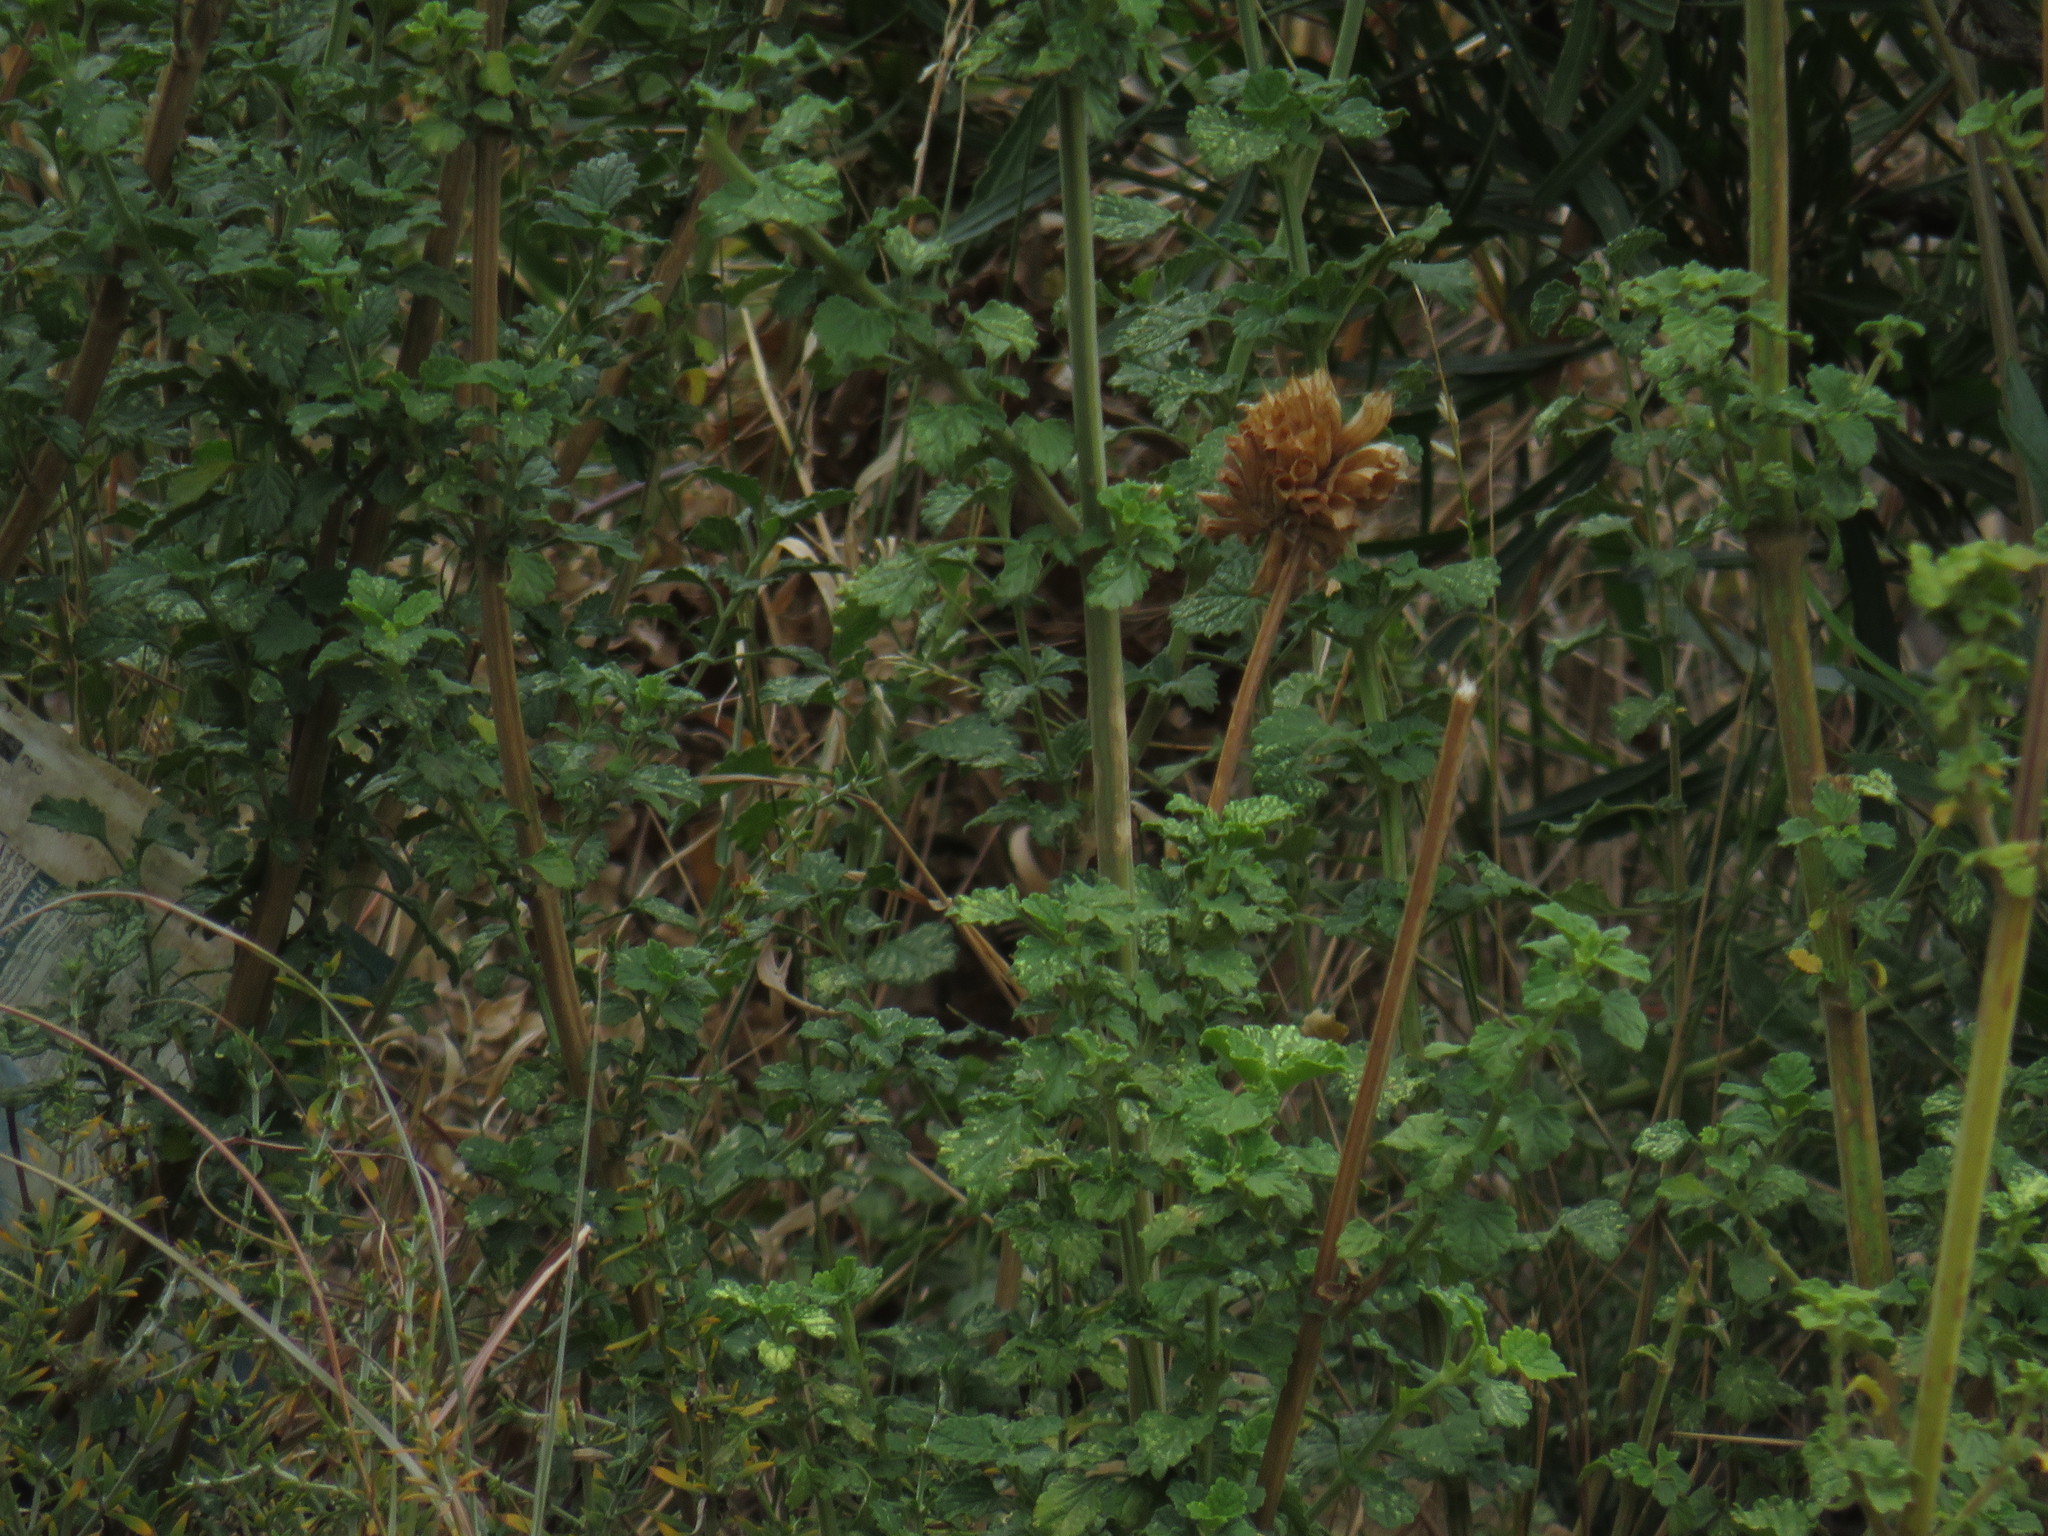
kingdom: Plantae
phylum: Tracheophyta
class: Magnoliopsida
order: Lamiales
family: Lamiaceae
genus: Leonotis
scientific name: Leonotis ocymifolia
